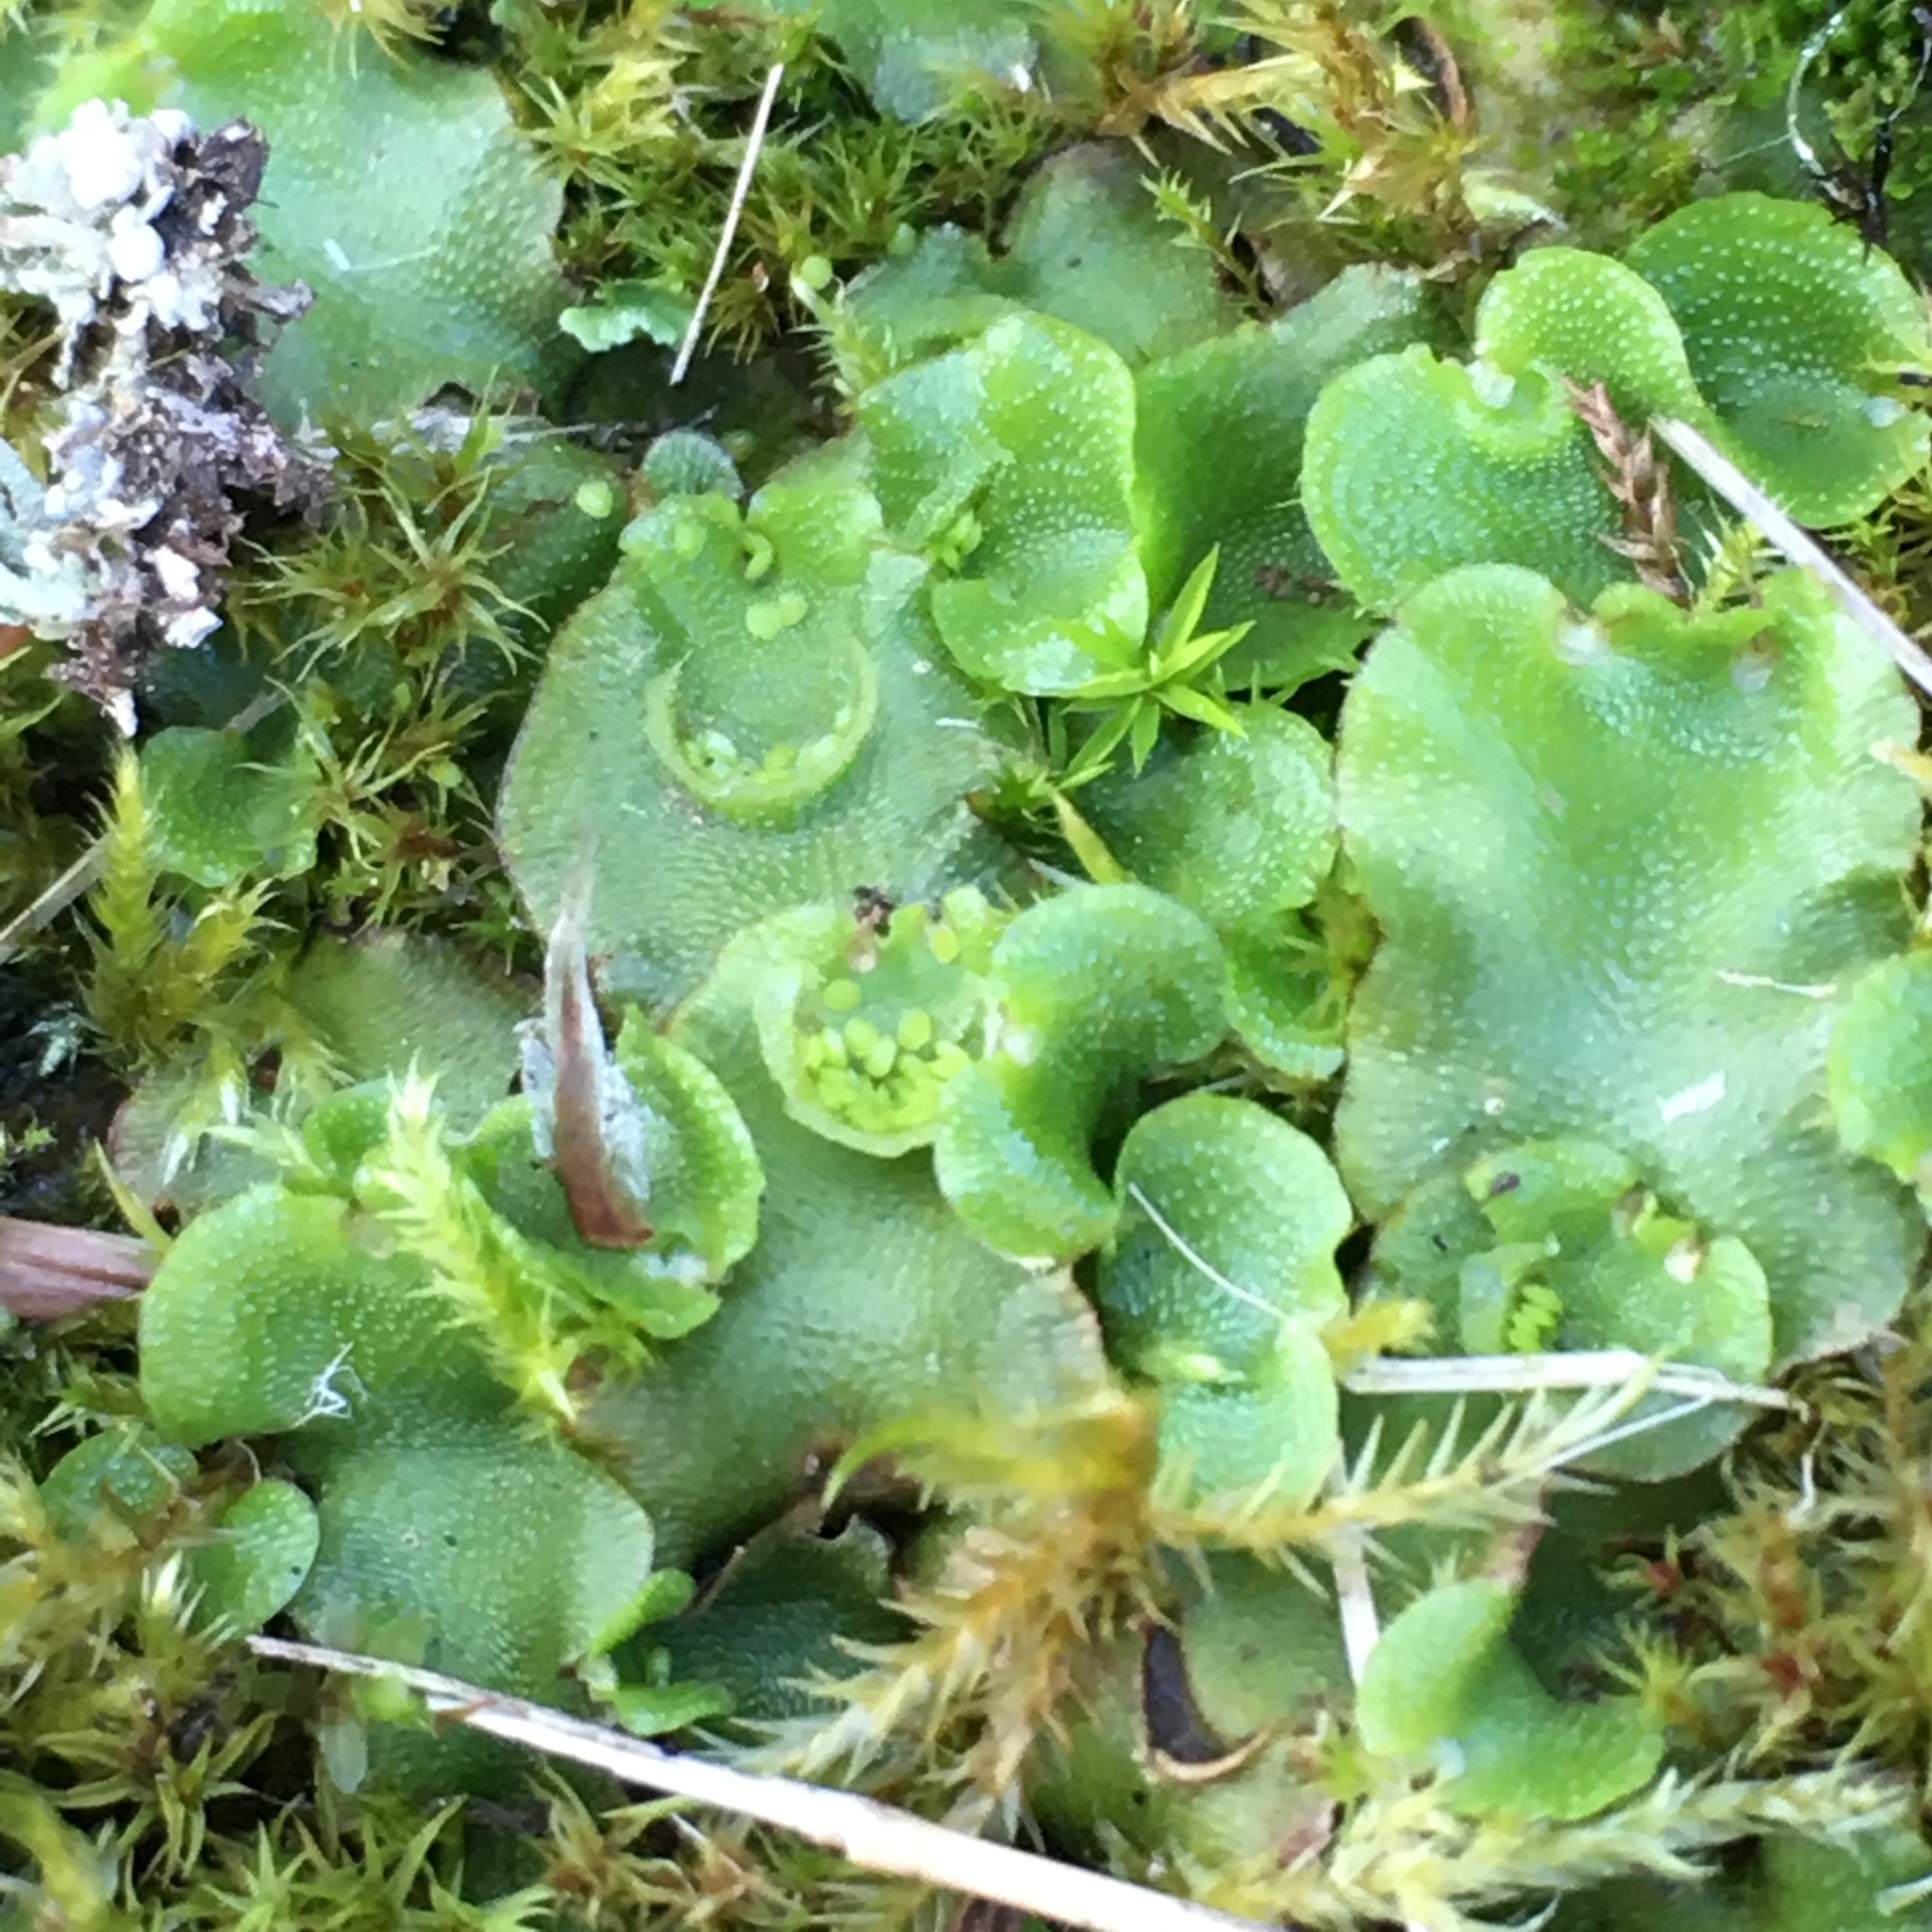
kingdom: Plantae
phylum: Marchantiophyta
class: Marchantiopsida
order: Lunulariales
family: Lunulariaceae
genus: Lunularia
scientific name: Lunularia cruciata
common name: Crescent-cup liverwort
